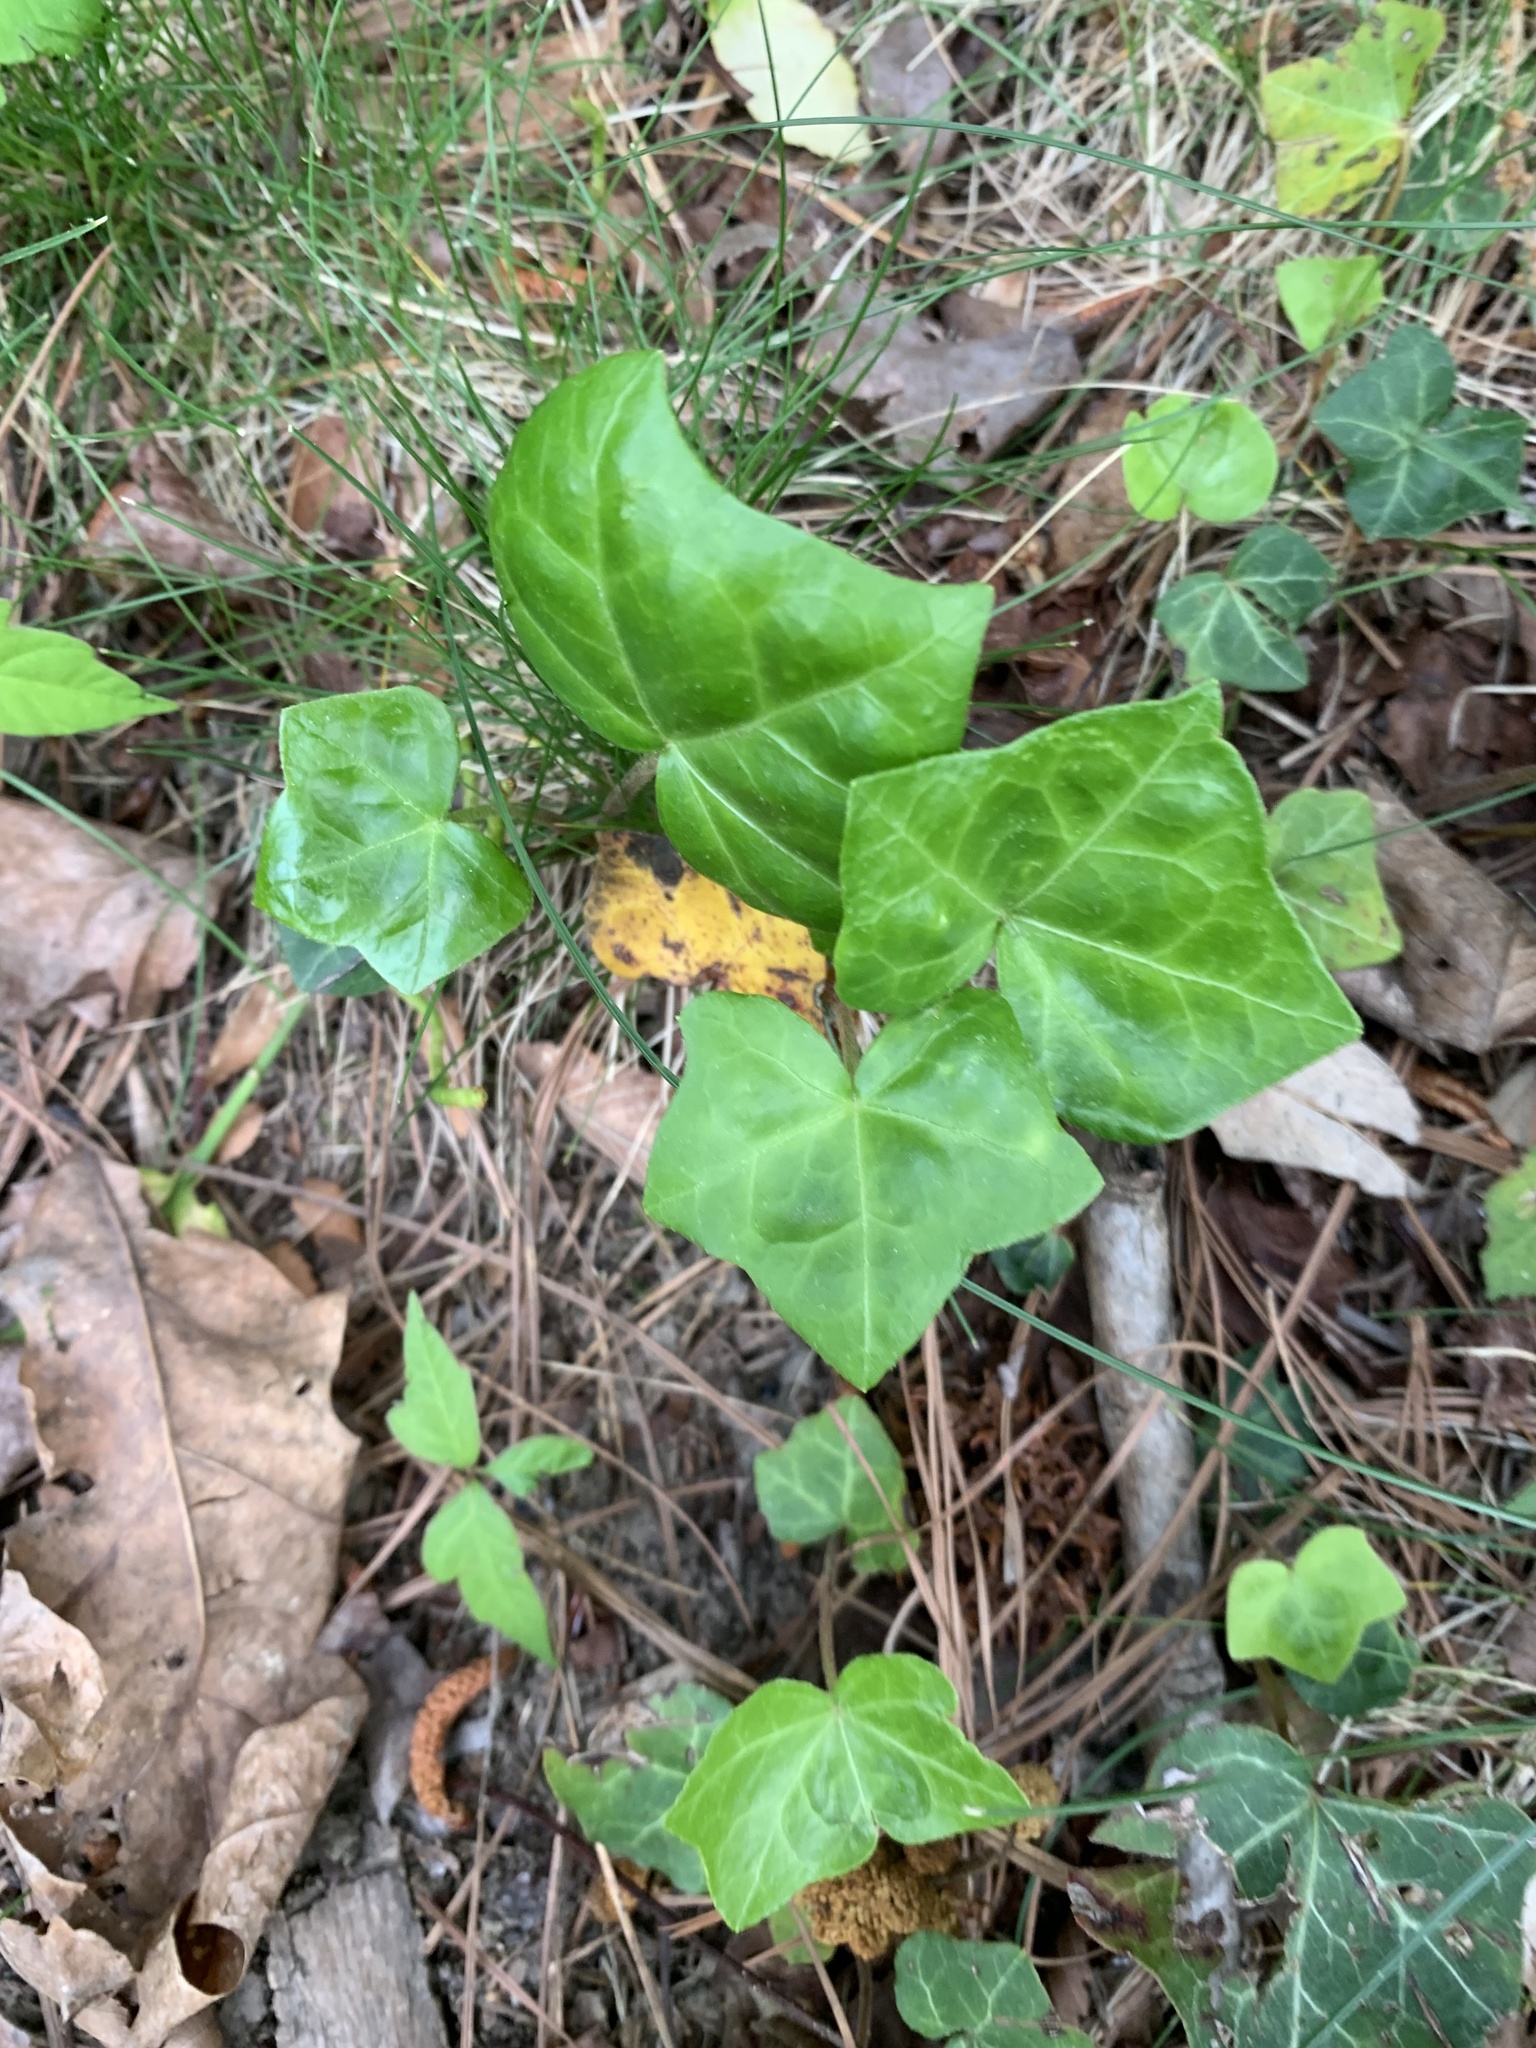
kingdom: Plantae
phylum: Tracheophyta
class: Magnoliopsida
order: Apiales
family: Araliaceae
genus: Hedera
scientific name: Hedera helix
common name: Ivy
